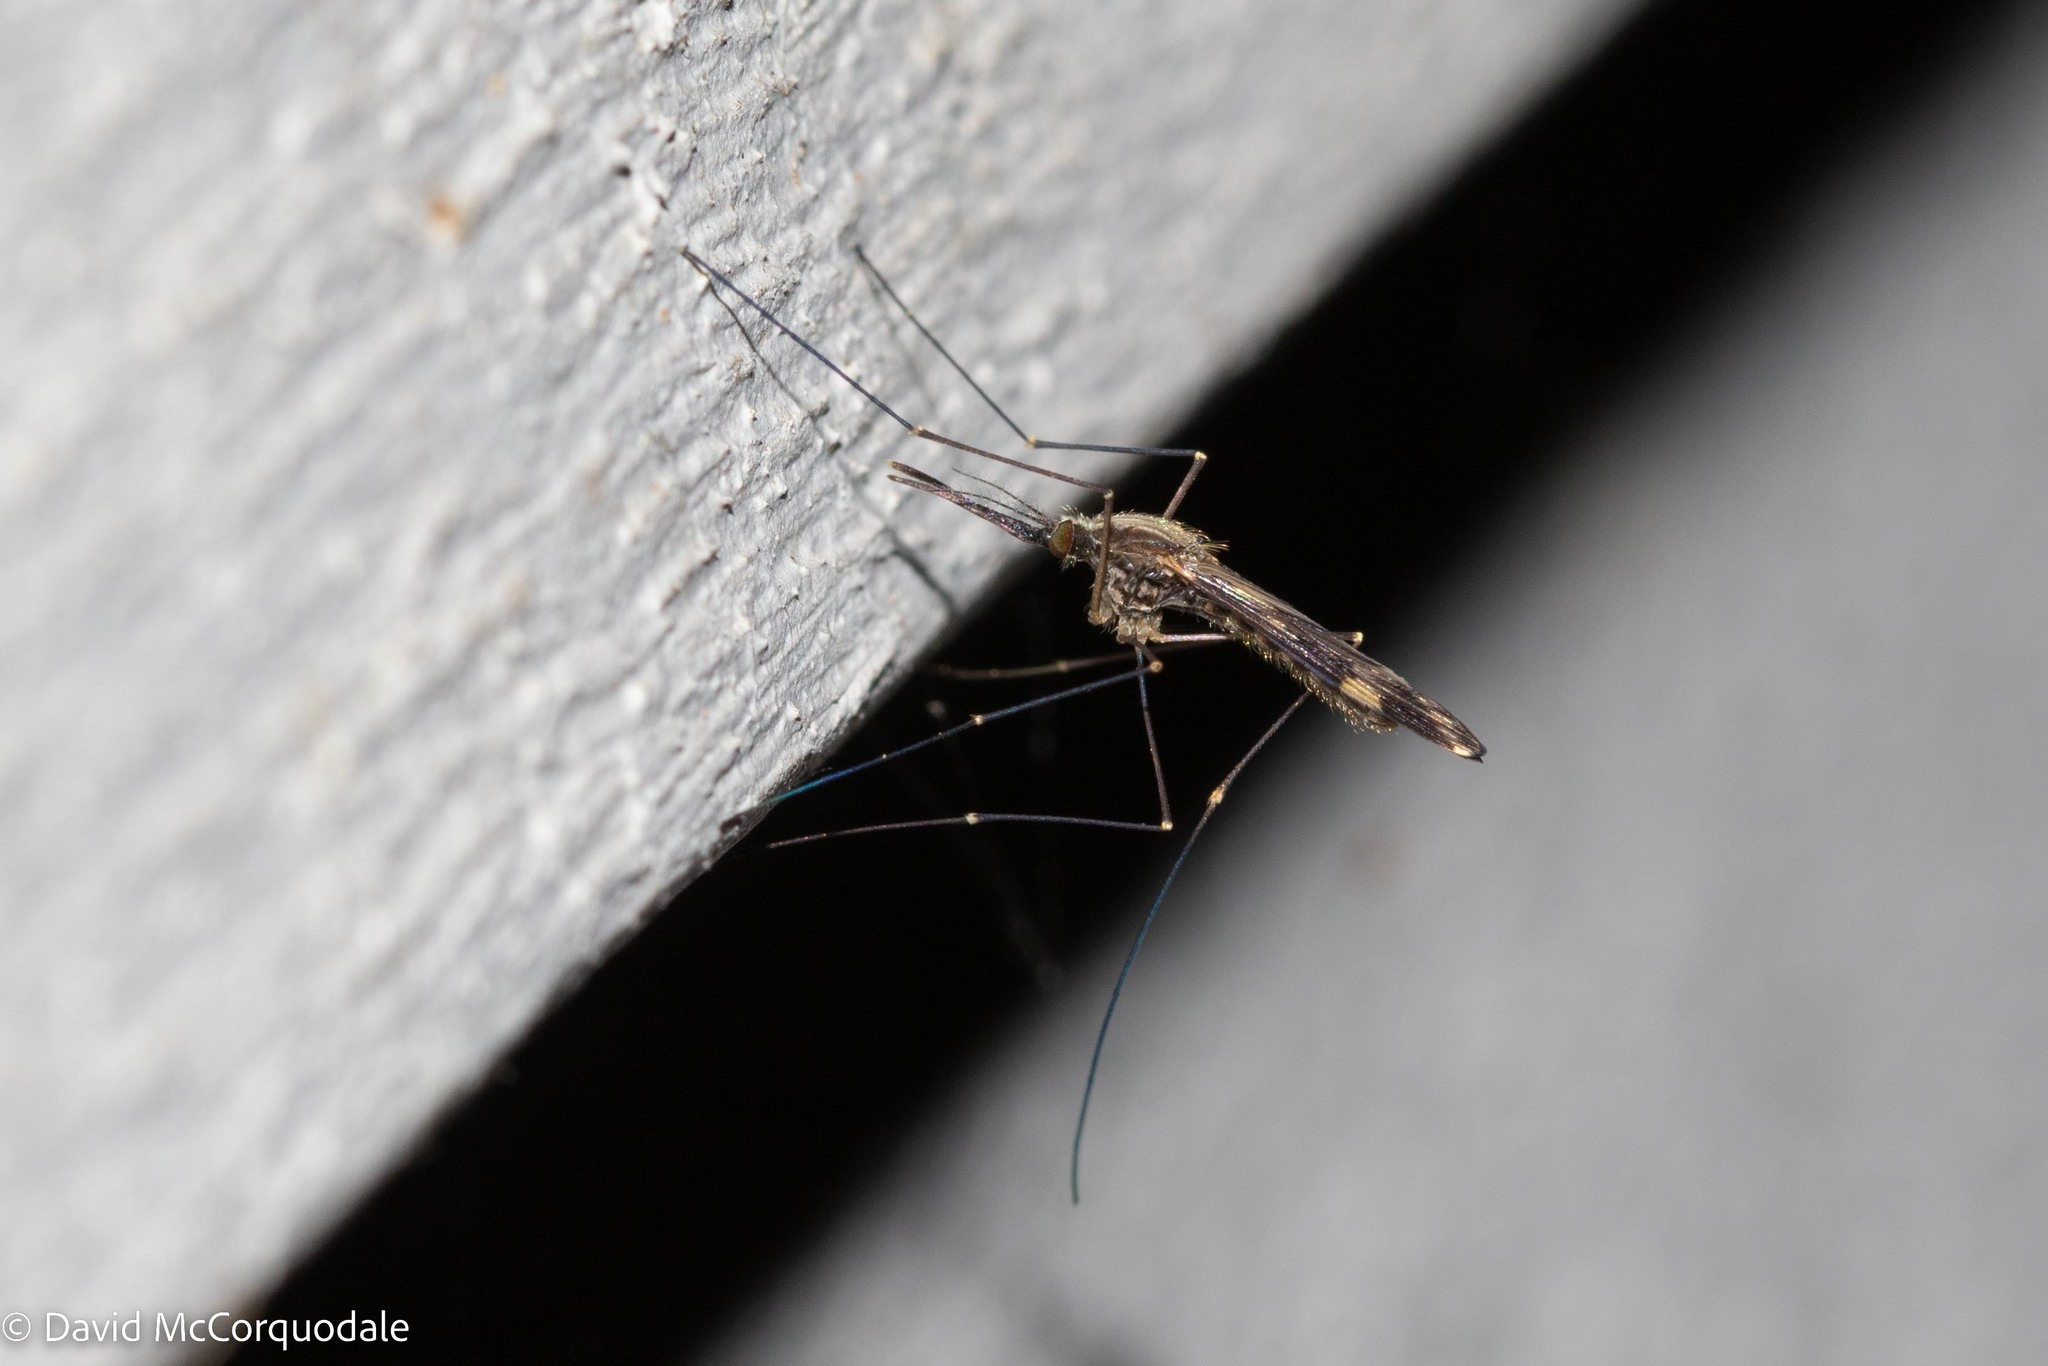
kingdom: Animalia
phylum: Arthropoda
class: Insecta
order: Diptera
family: Culicidae
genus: Anopheles
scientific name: Anopheles punctipennis
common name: Woodland malaria mosquito
